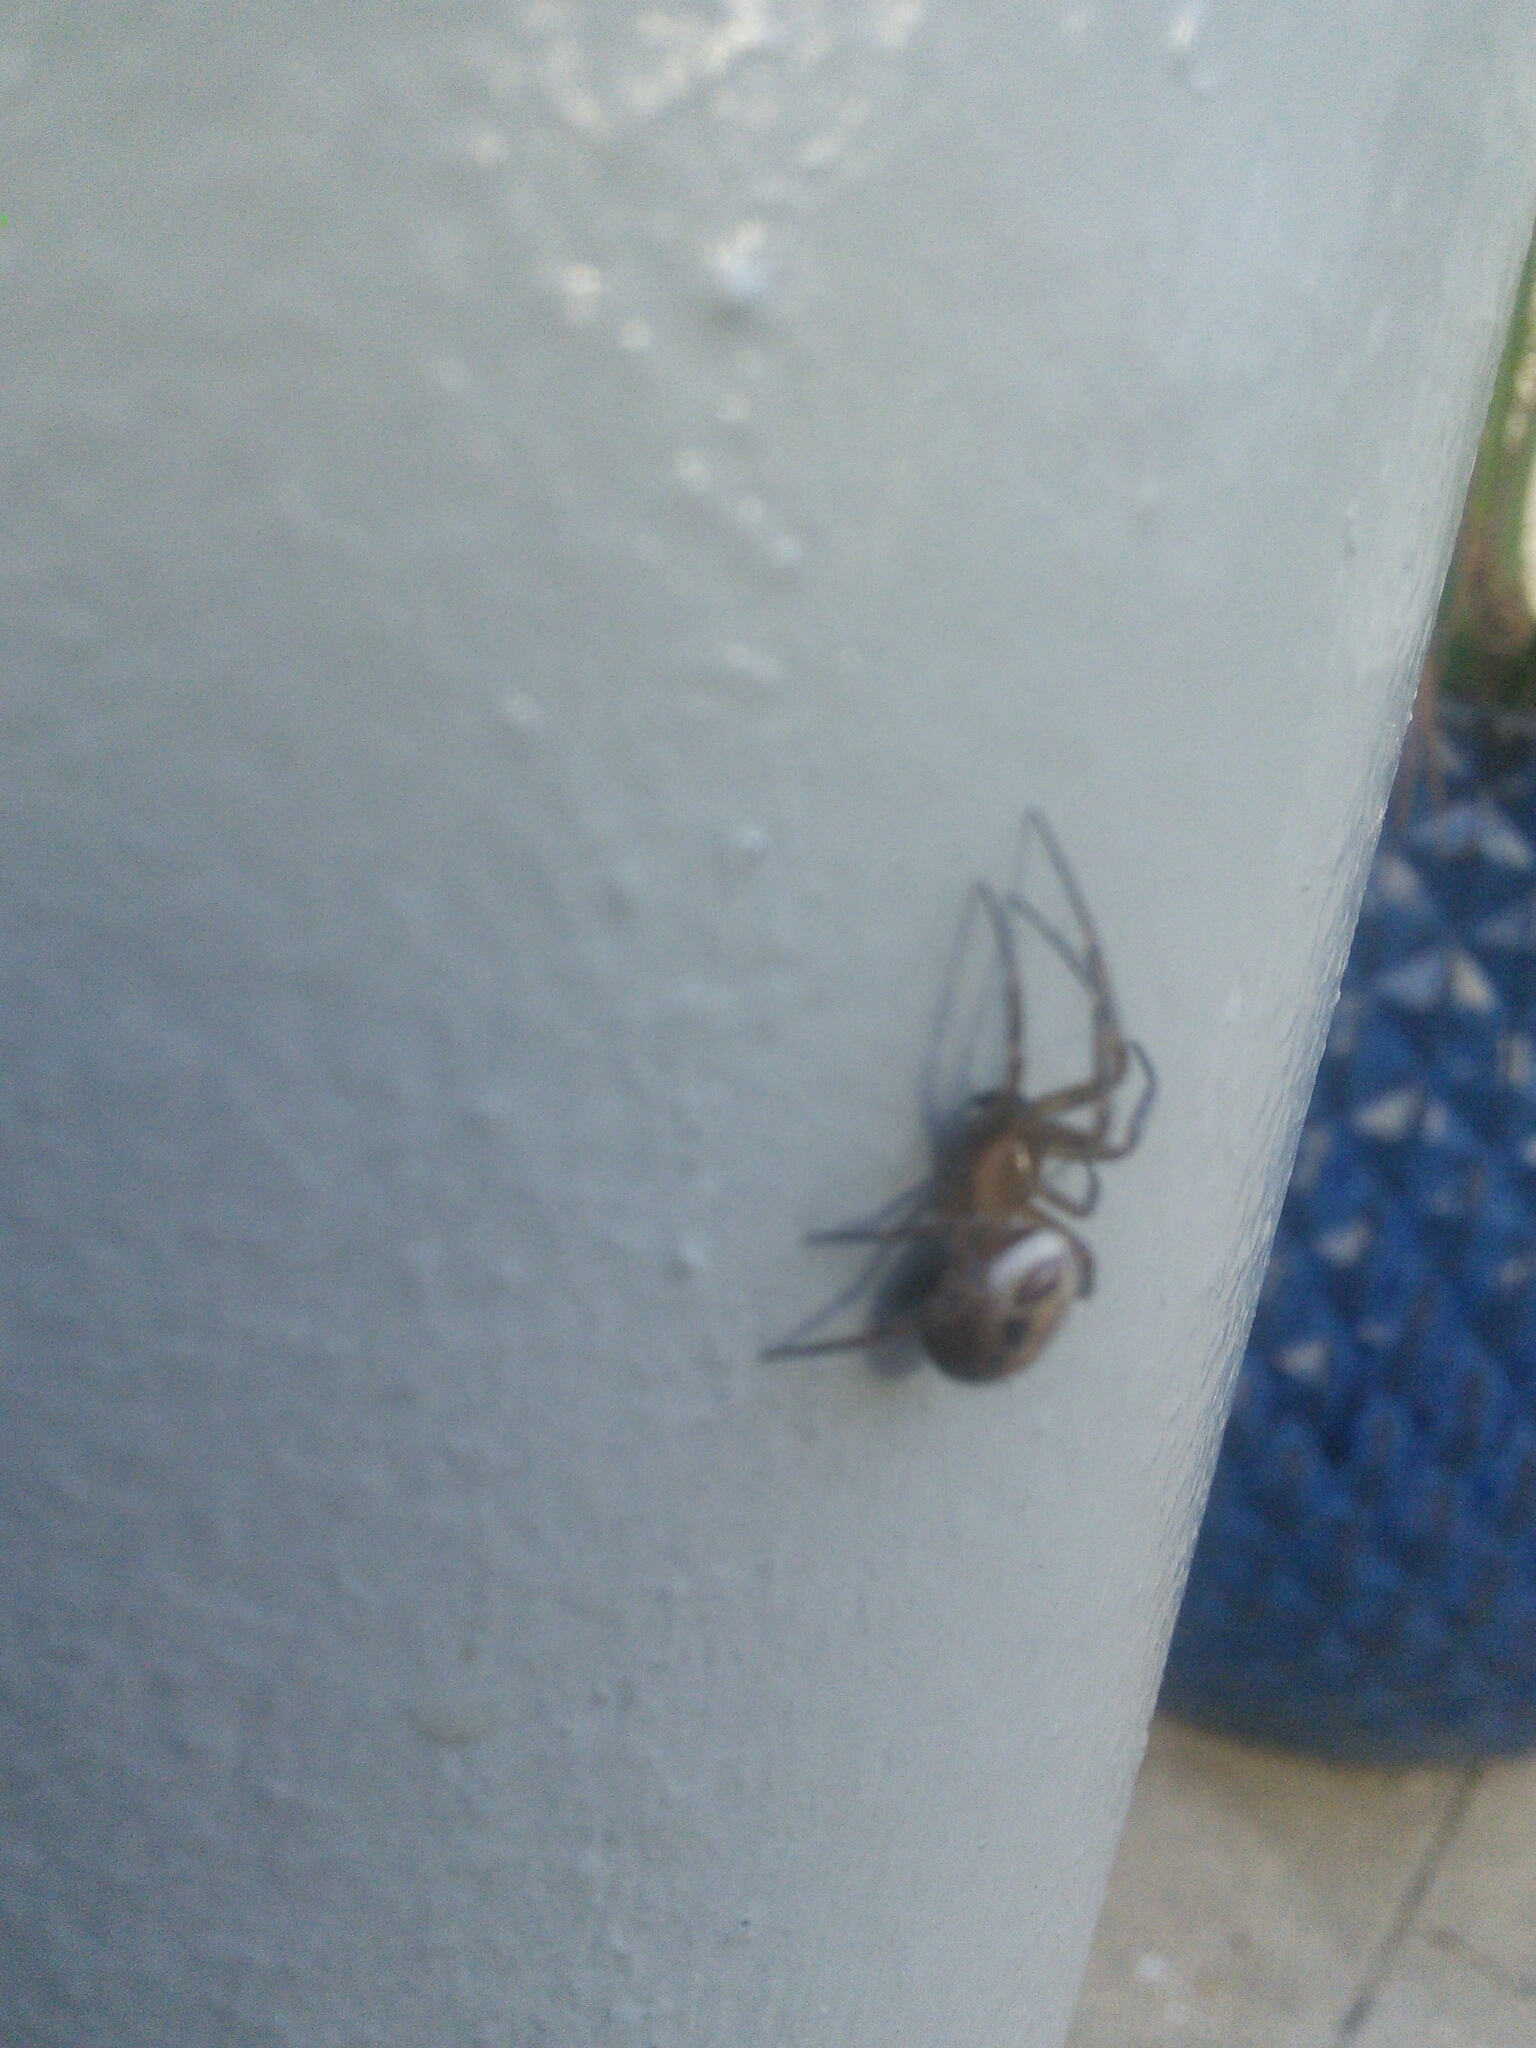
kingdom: Animalia
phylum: Arthropoda
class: Arachnida
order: Araneae
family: Theridiidae
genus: Steatoda
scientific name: Steatoda nobilis
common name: Cobweb weaver
